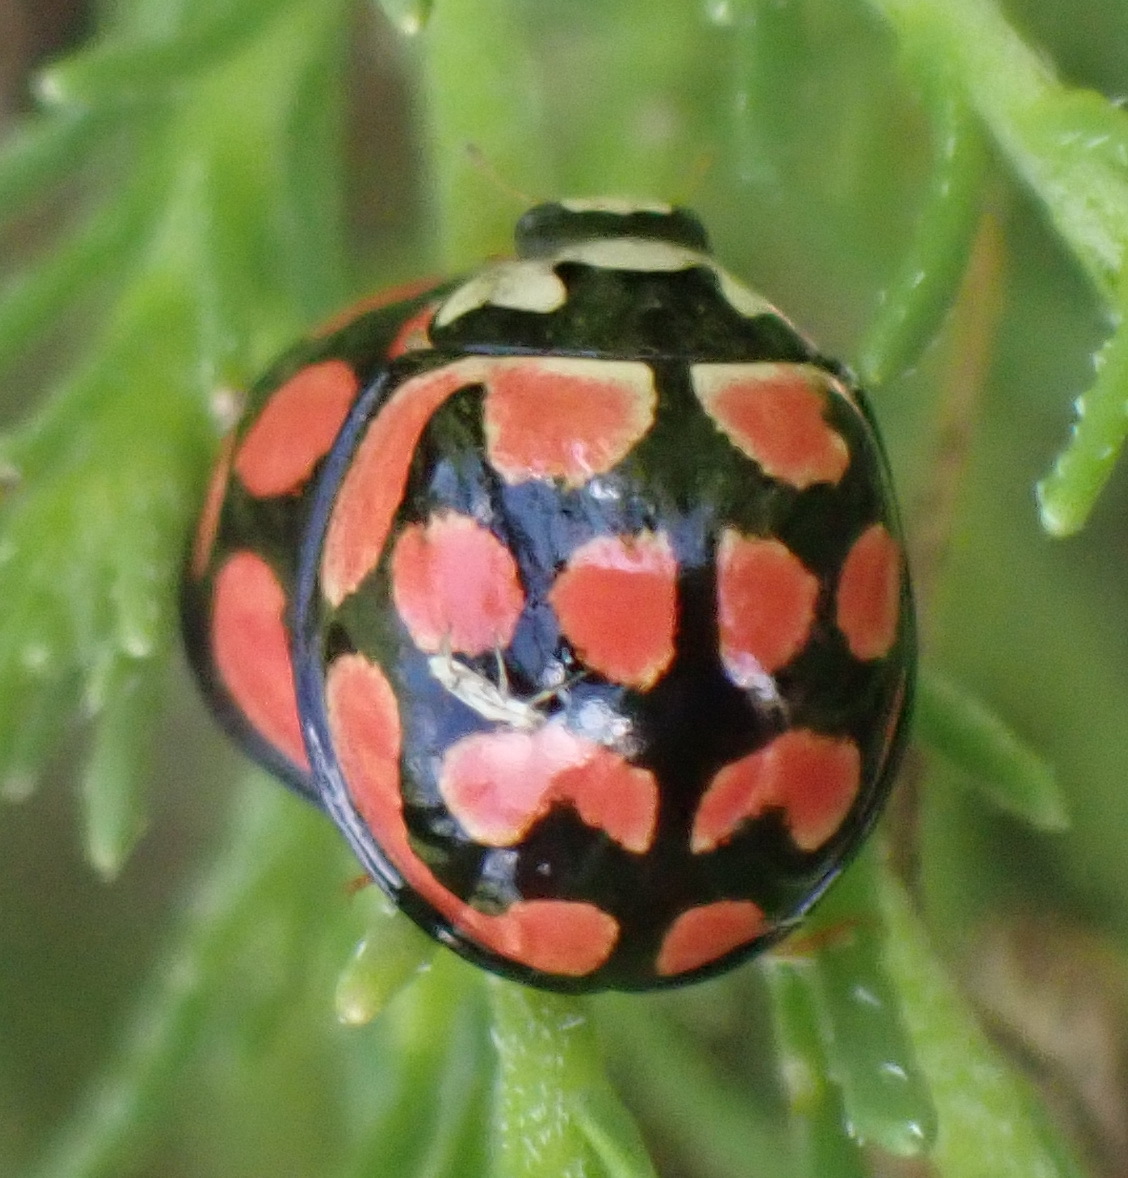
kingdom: Animalia
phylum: Arthropoda
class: Insecta
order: Coleoptera
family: Coccinellidae
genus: Cheilomenes
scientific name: Cheilomenes lunata
